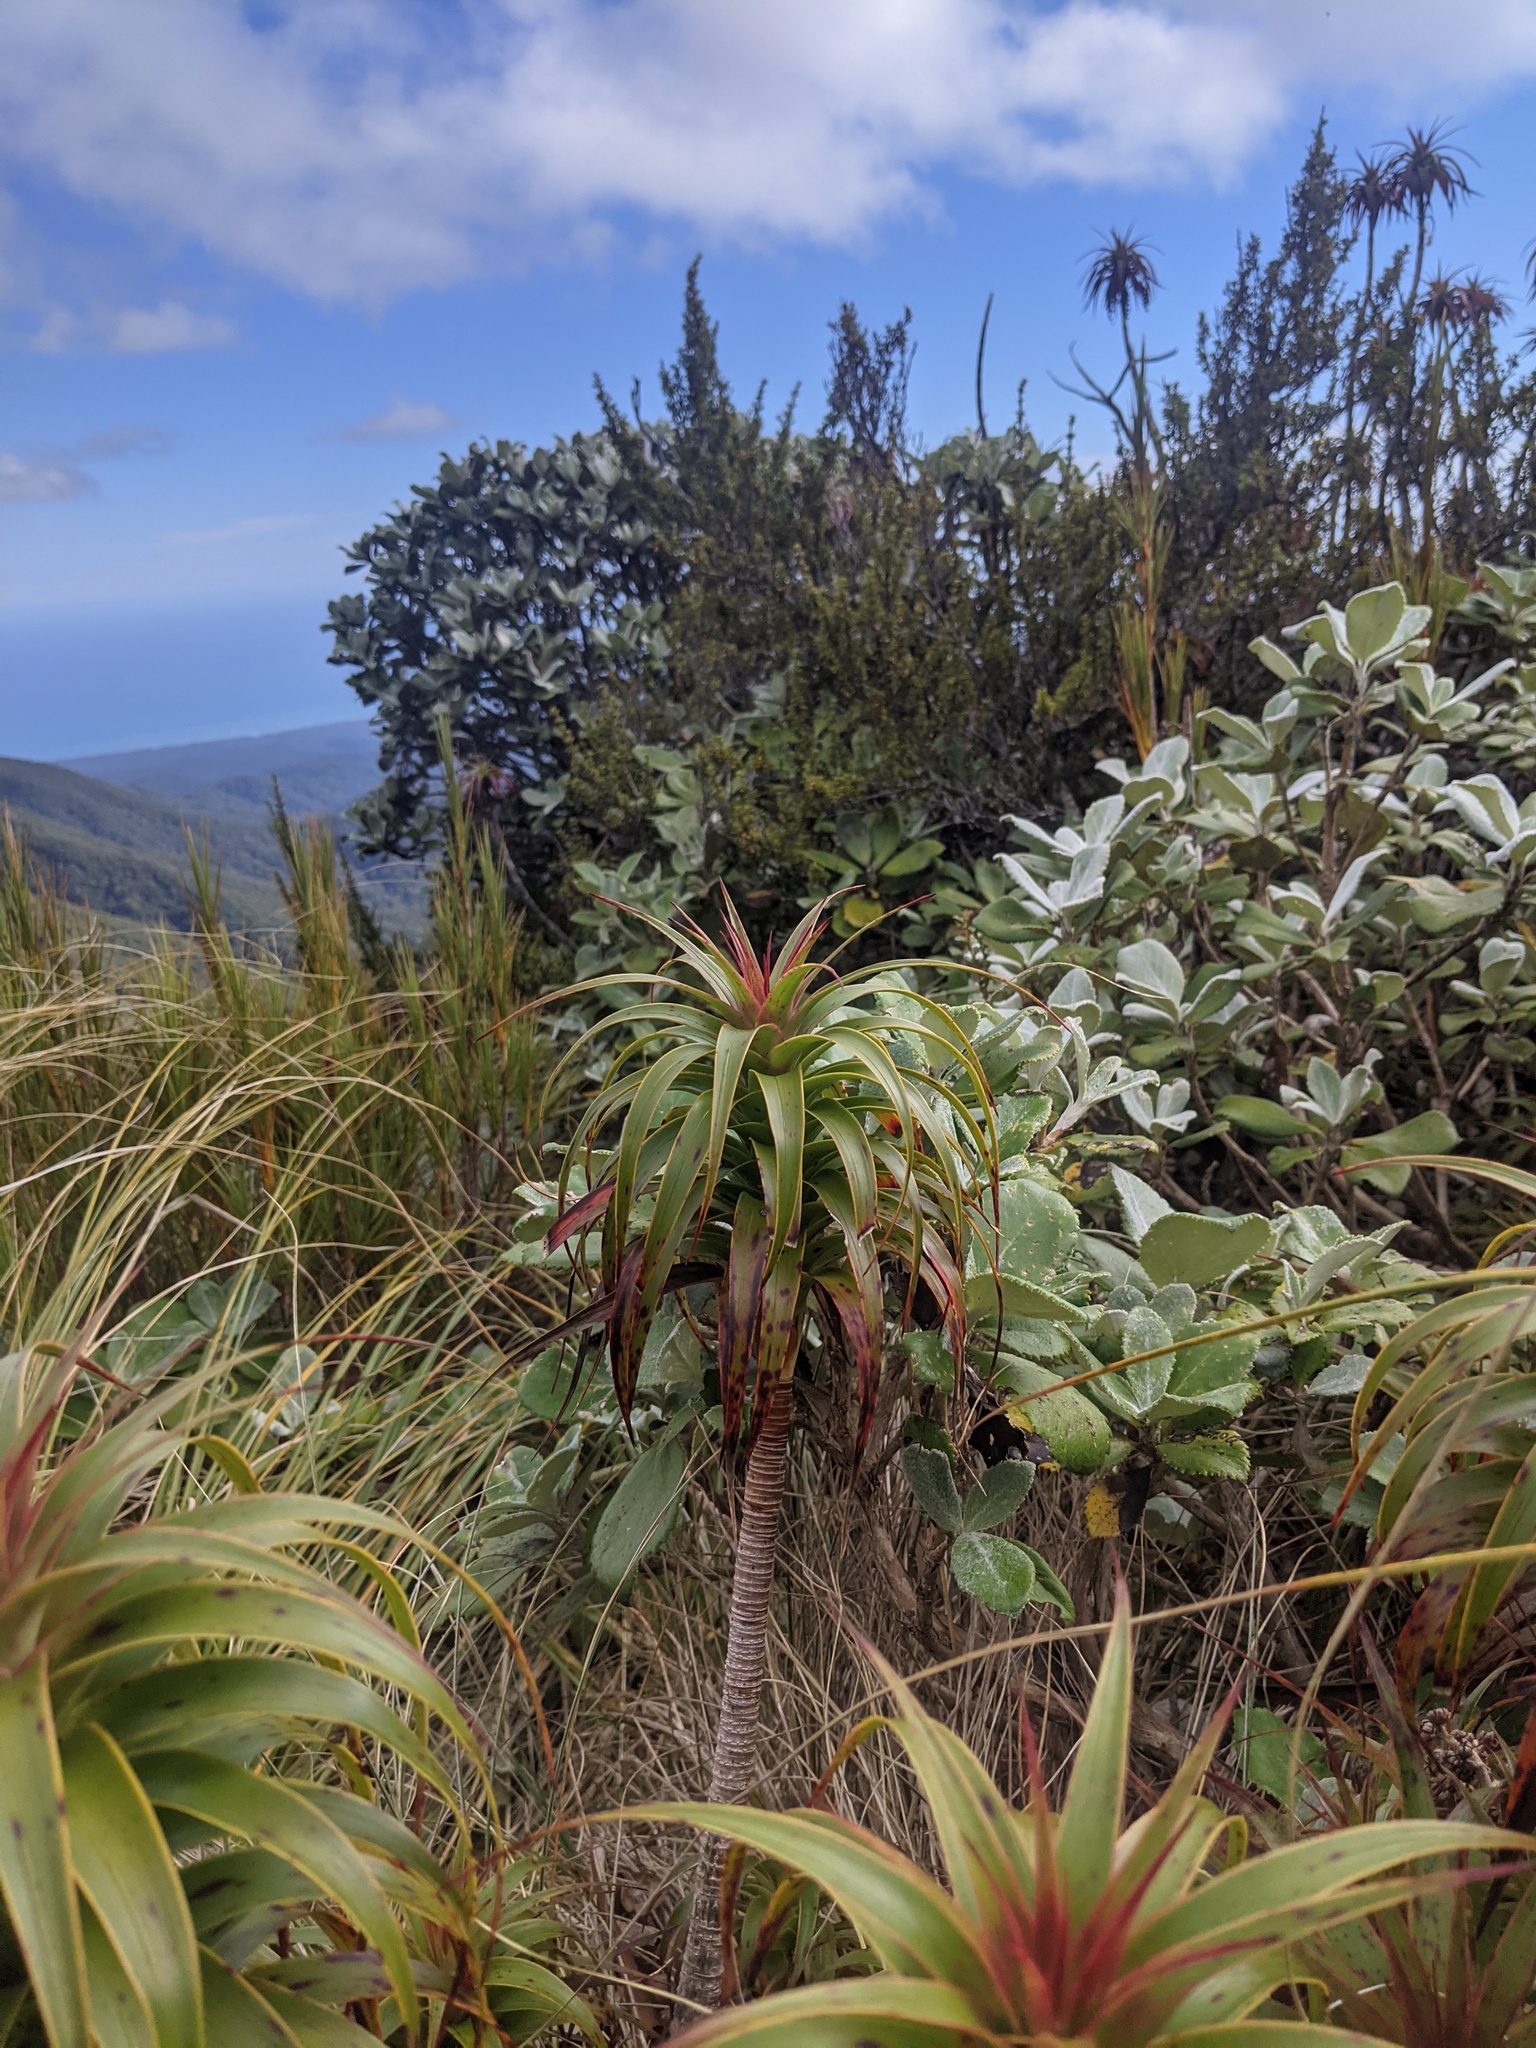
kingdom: Plantae
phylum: Tracheophyta
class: Magnoliopsida
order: Ericales
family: Ericaceae
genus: Dracophyllum
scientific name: Dracophyllum menziesii
